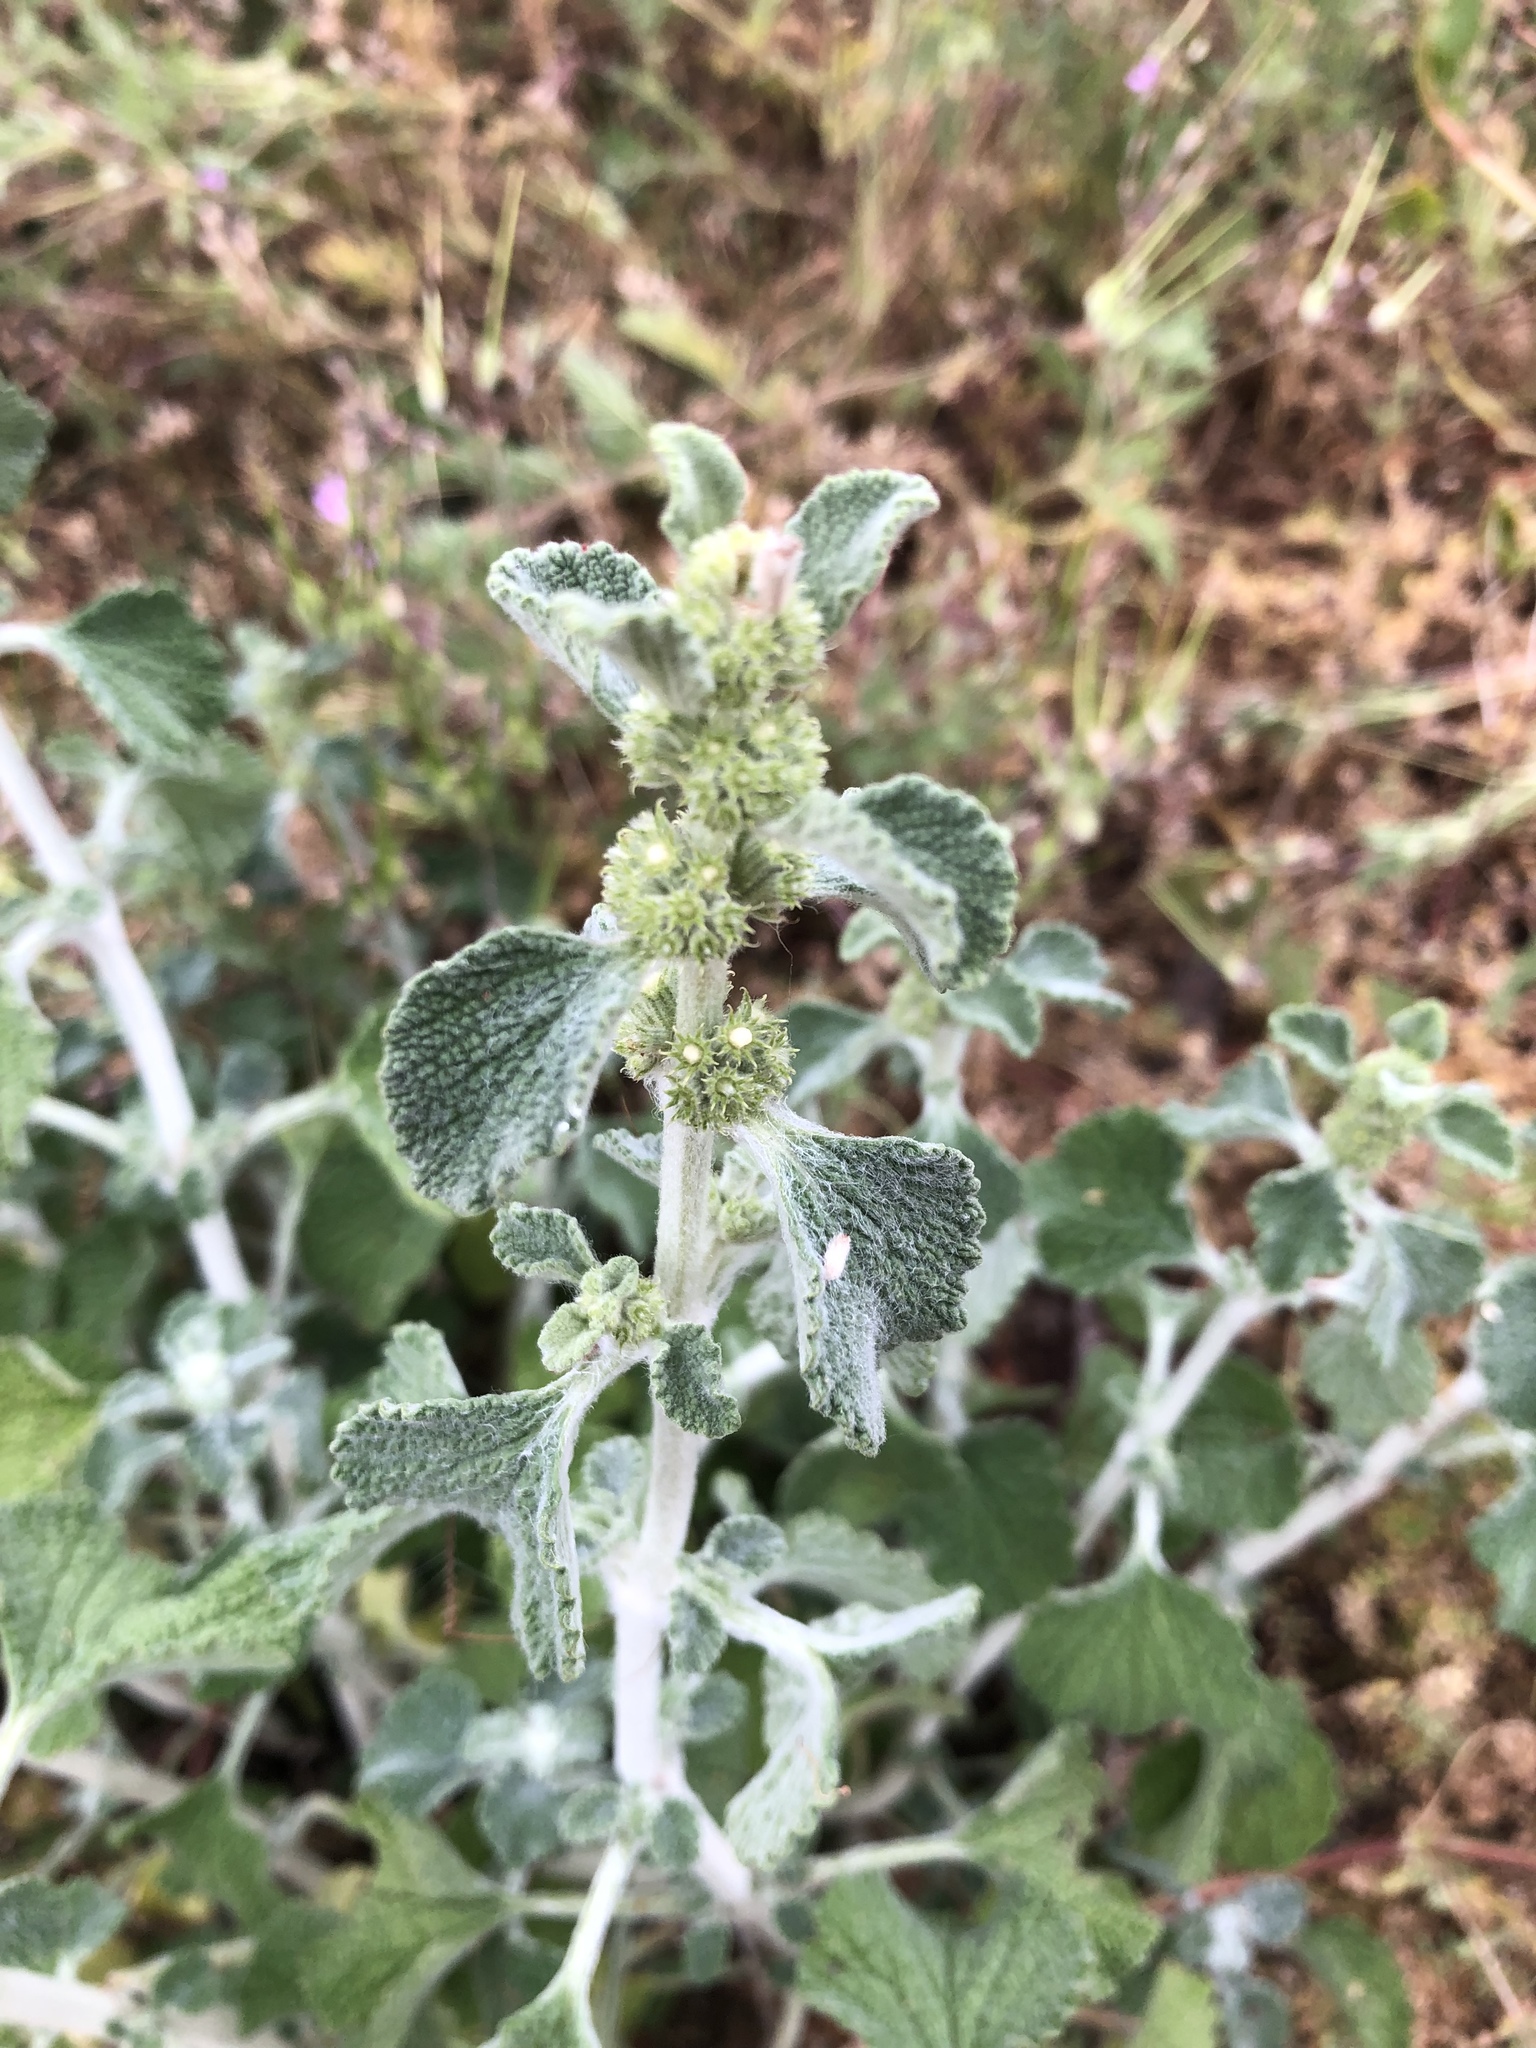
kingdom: Plantae
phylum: Tracheophyta
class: Magnoliopsida
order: Lamiales
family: Lamiaceae
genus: Marrubium
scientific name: Marrubium vulgare
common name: Horehound
